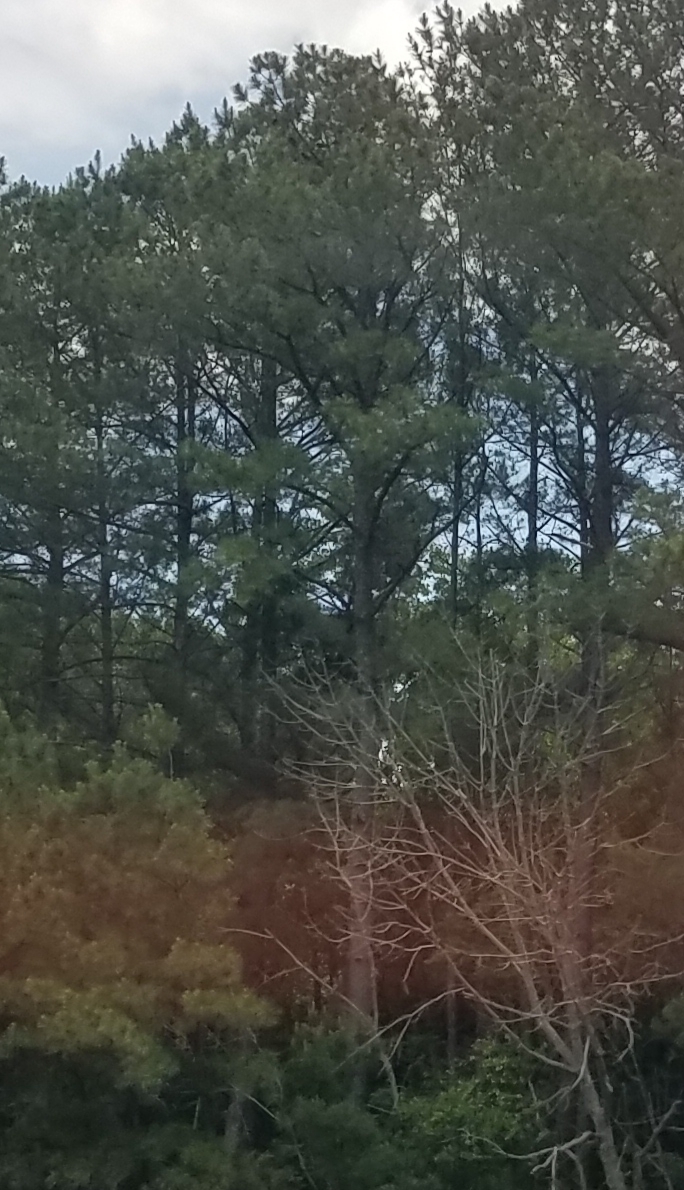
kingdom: Plantae
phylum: Tracheophyta
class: Pinopsida
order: Pinales
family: Pinaceae
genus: Pinus
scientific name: Pinus strobus
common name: Weymouth pine
